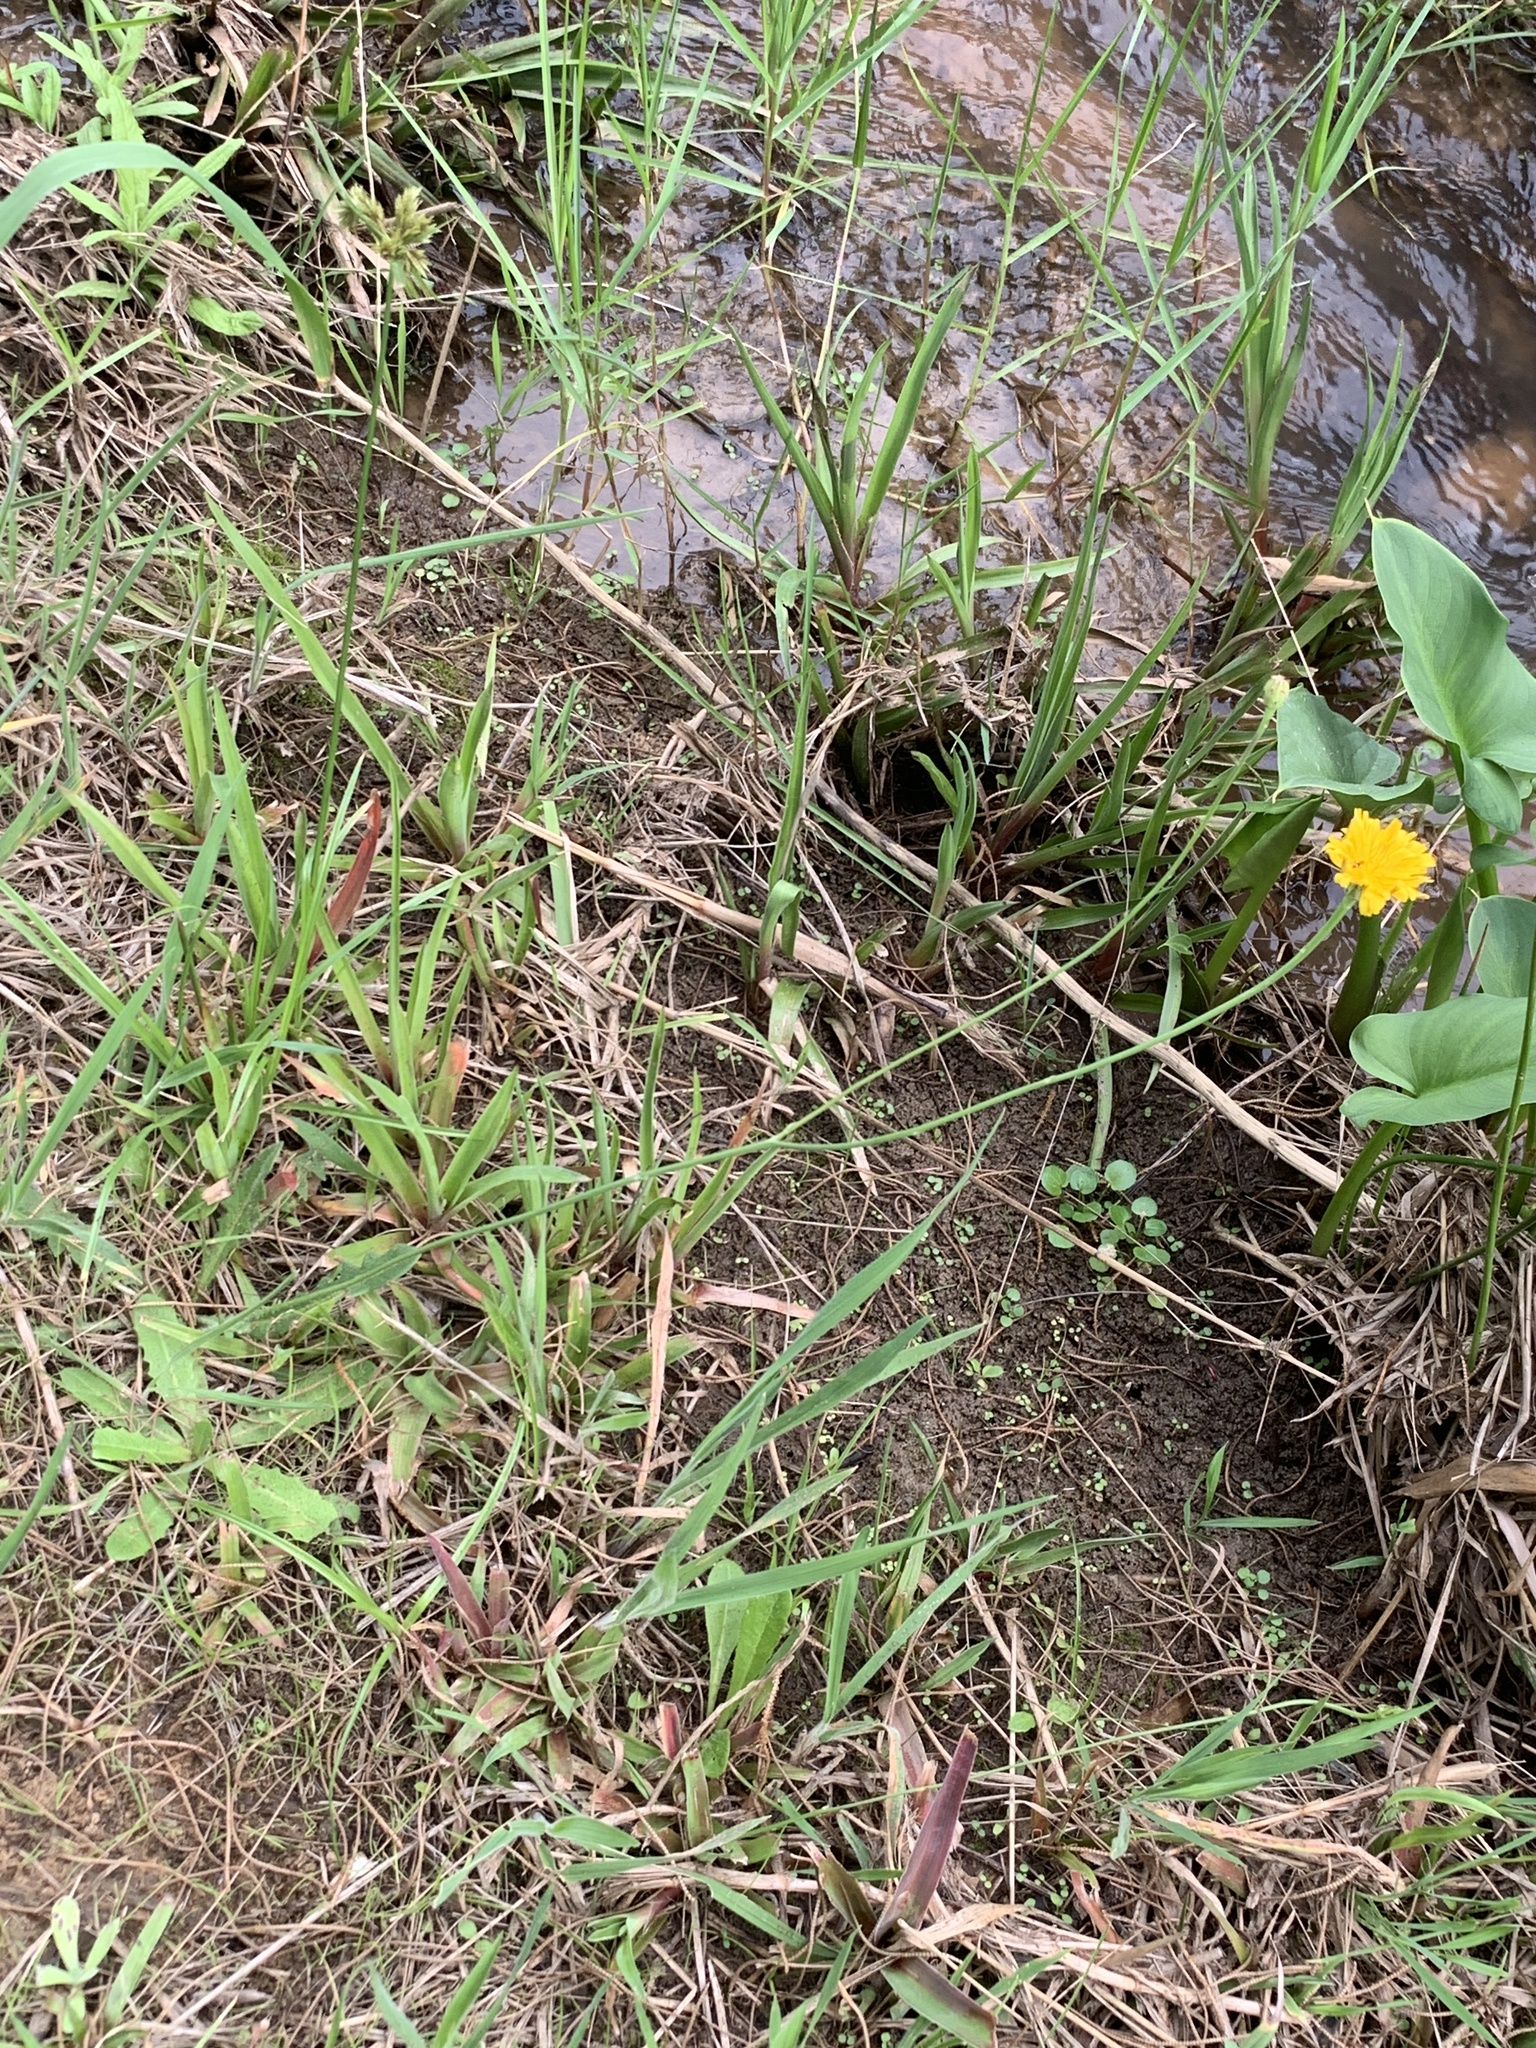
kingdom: Plantae
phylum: Tracheophyta
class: Magnoliopsida
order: Asterales
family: Asteraceae
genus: Hypochaeris
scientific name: Hypochaeris radicata
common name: Flatweed
